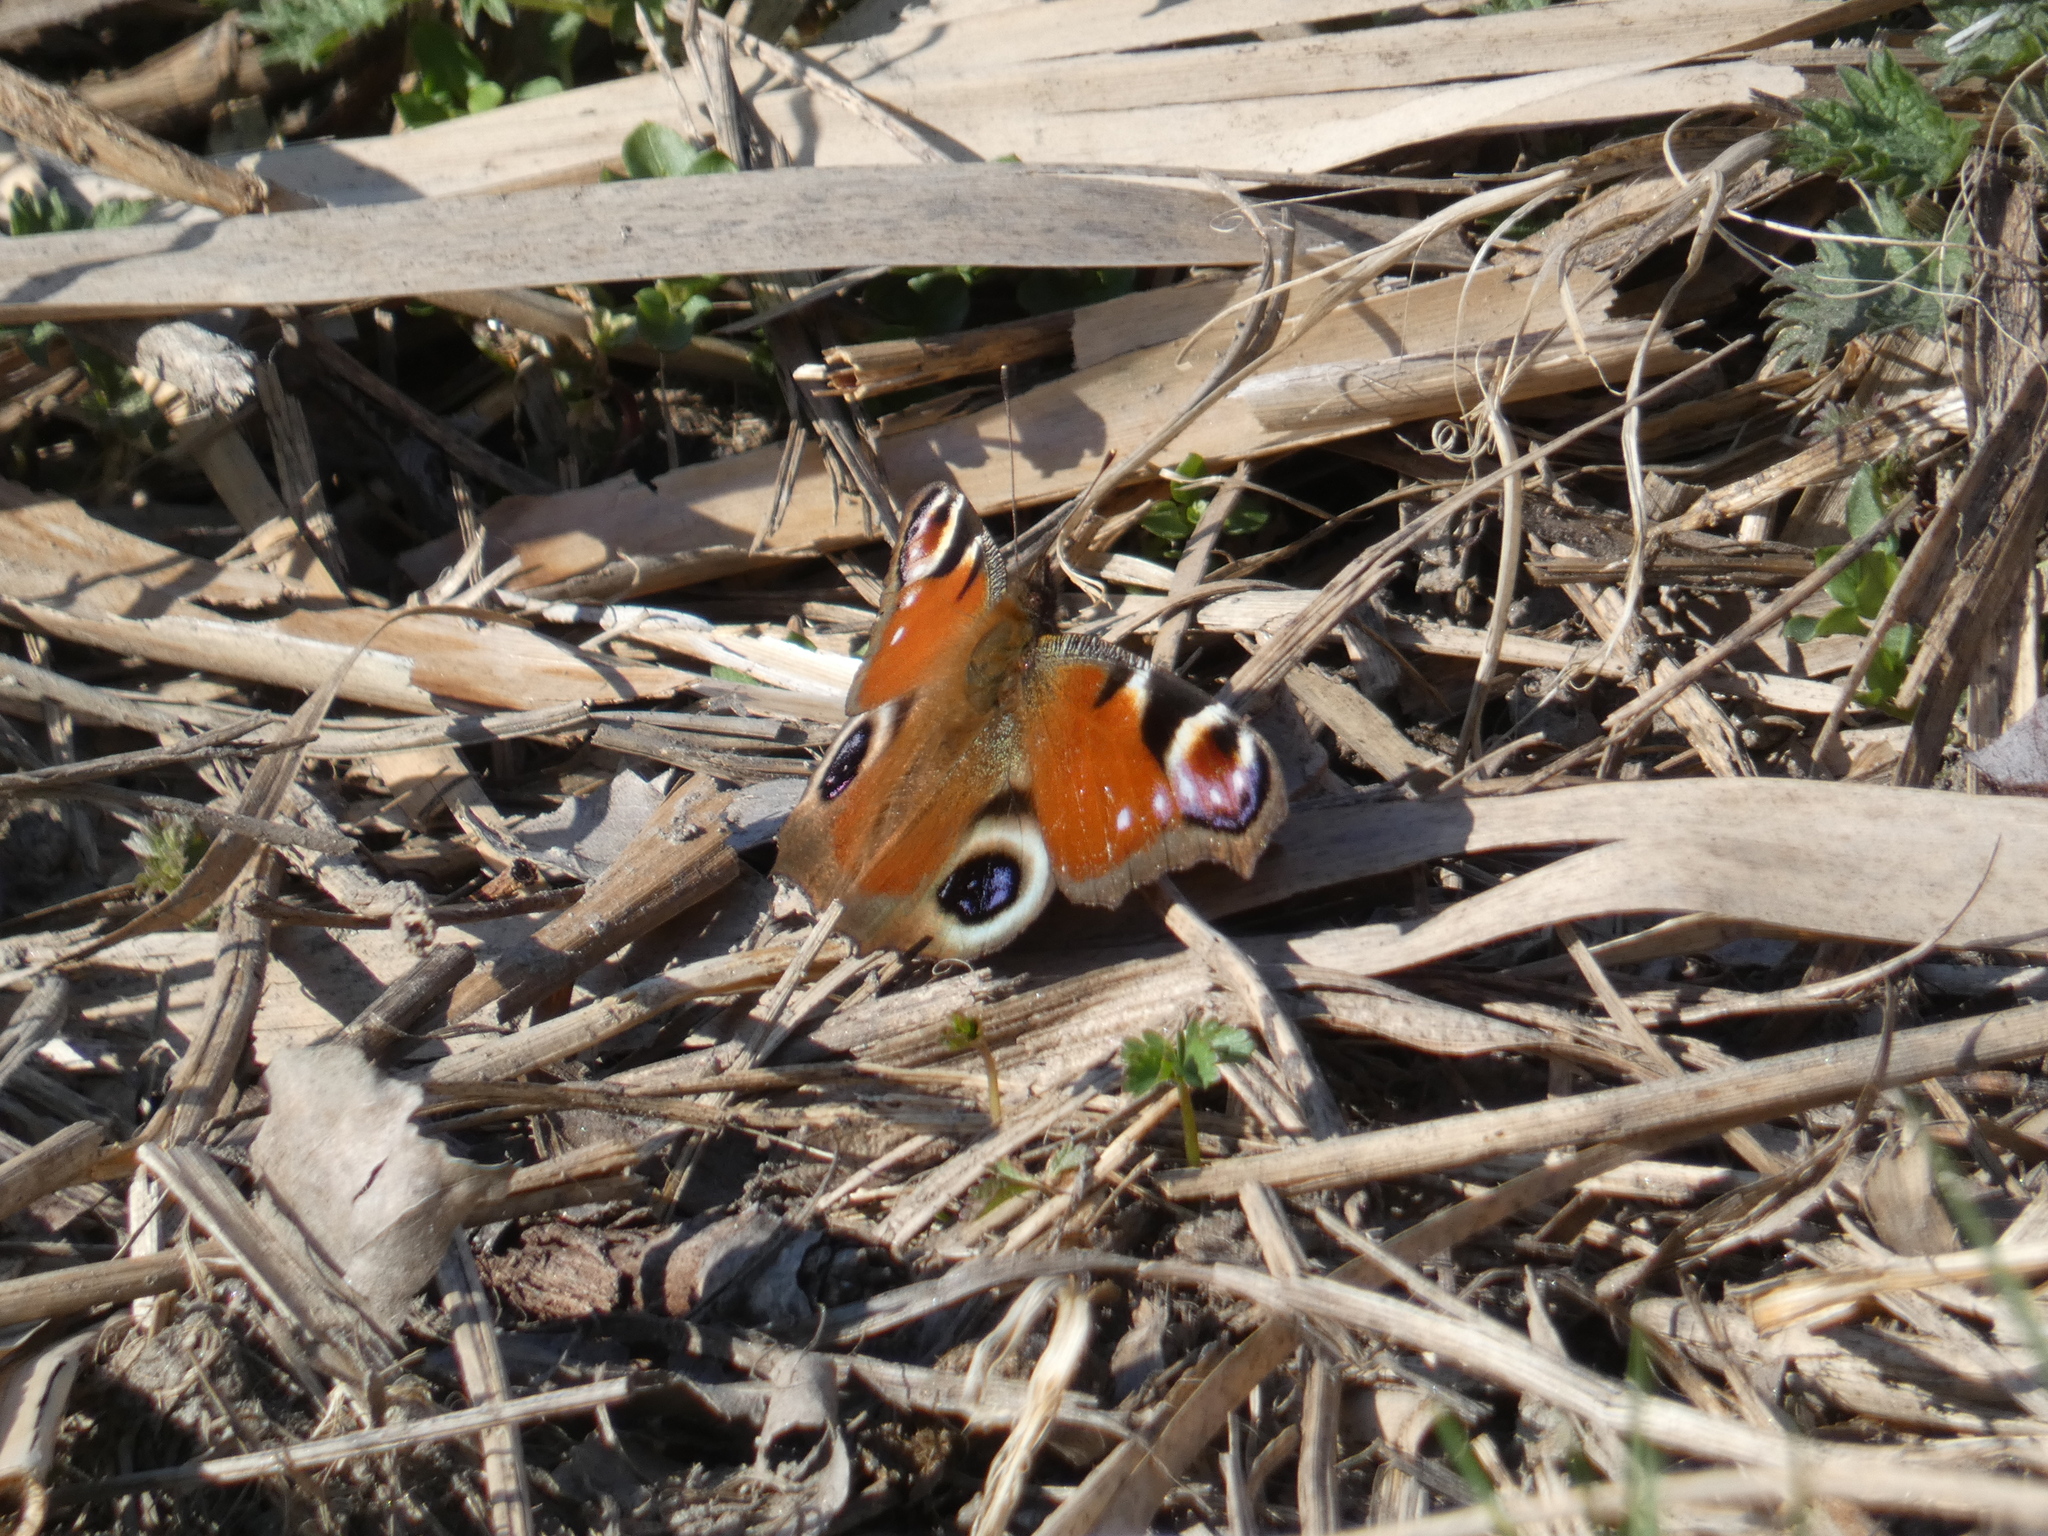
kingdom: Animalia
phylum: Arthropoda
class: Insecta
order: Lepidoptera
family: Nymphalidae
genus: Aglais
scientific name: Aglais io
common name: Peacock
